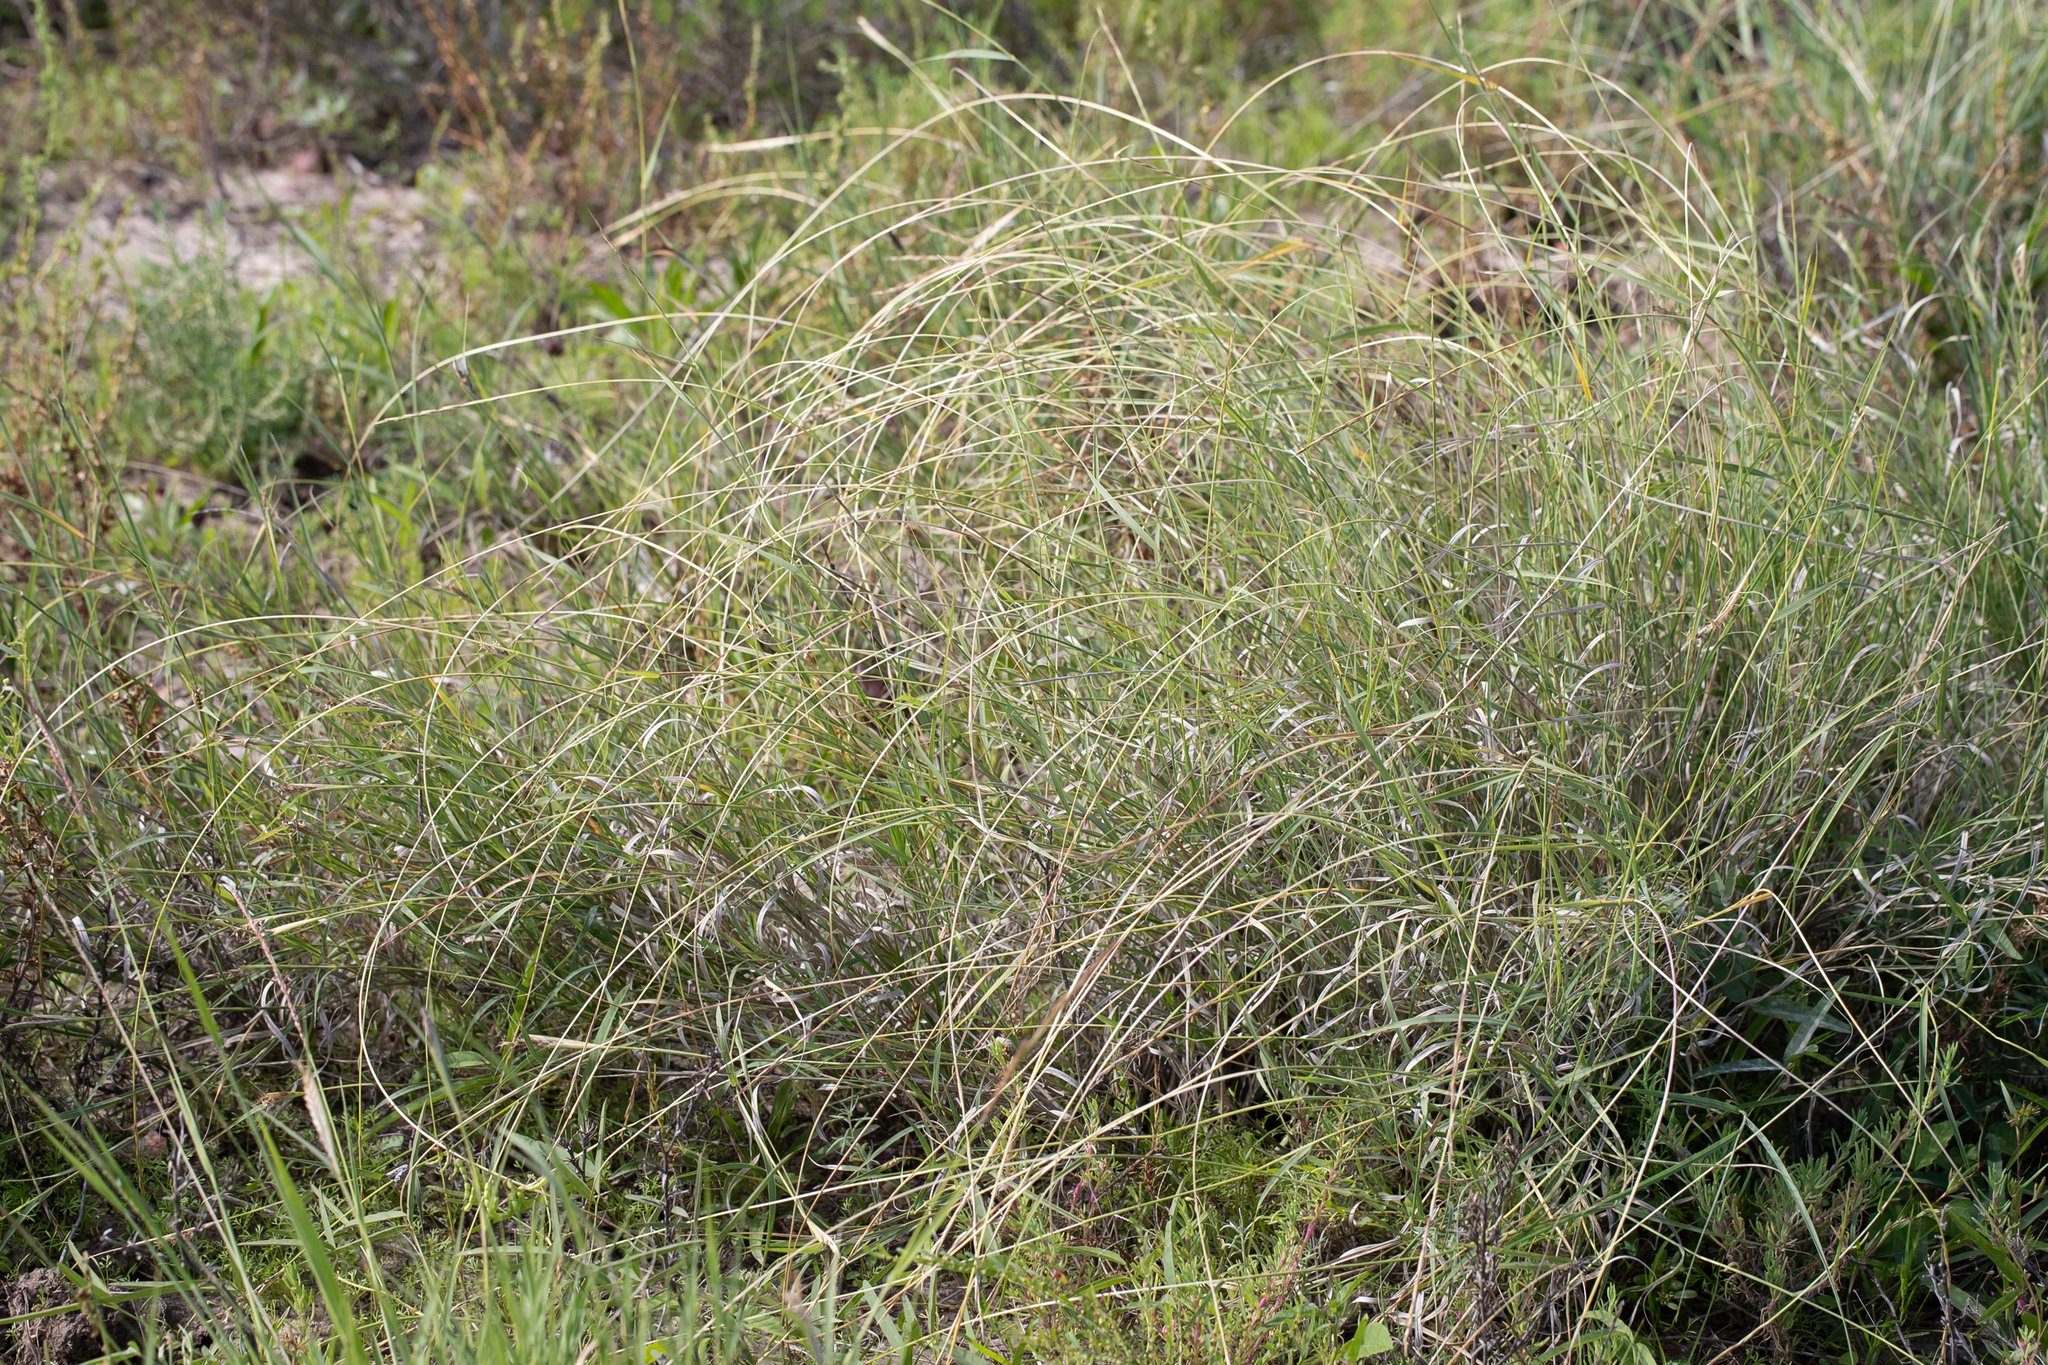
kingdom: Plantae
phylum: Tracheophyta
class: Liliopsida
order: Poales
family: Poaceae
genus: Astrebla
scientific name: Astrebla elymoides
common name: Hoop mitchell grass
